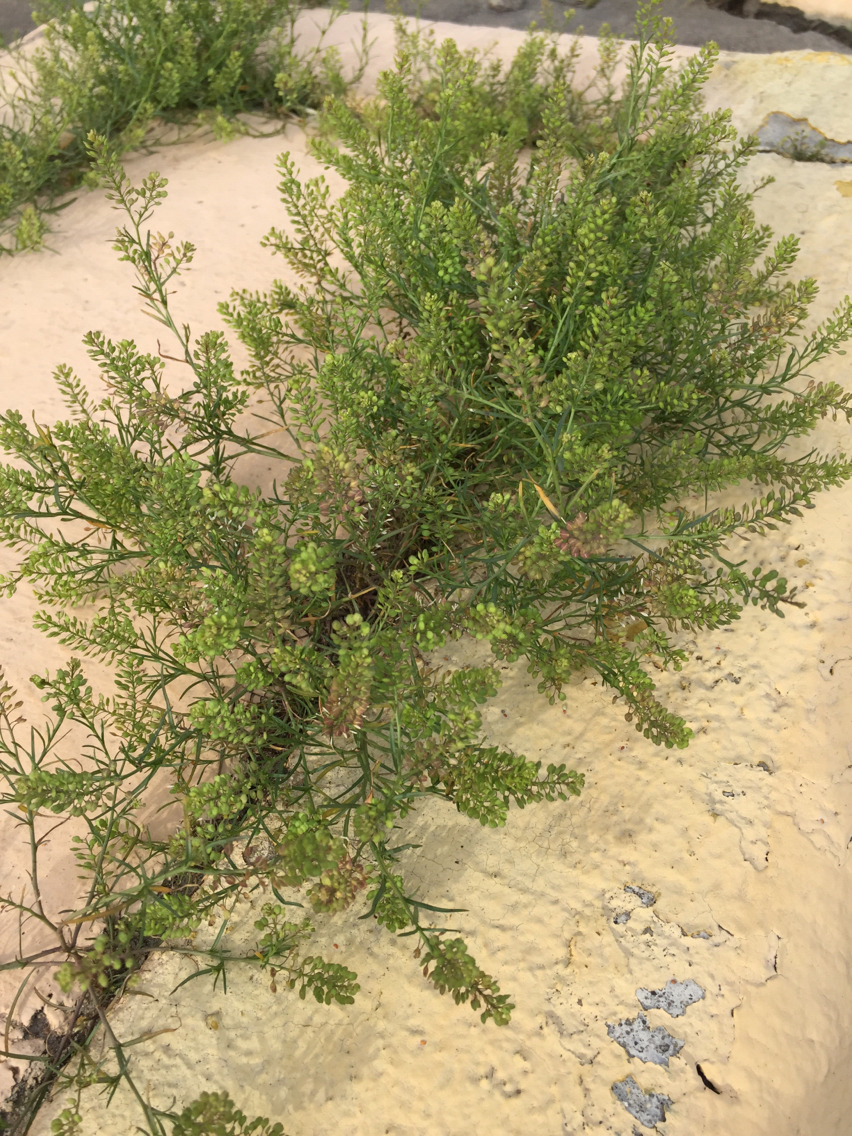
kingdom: Plantae
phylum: Tracheophyta
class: Magnoliopsida
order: Brassicales
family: Brassicaceae
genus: Lepidium
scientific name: Lepidium virginicum
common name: Least pepperwort
